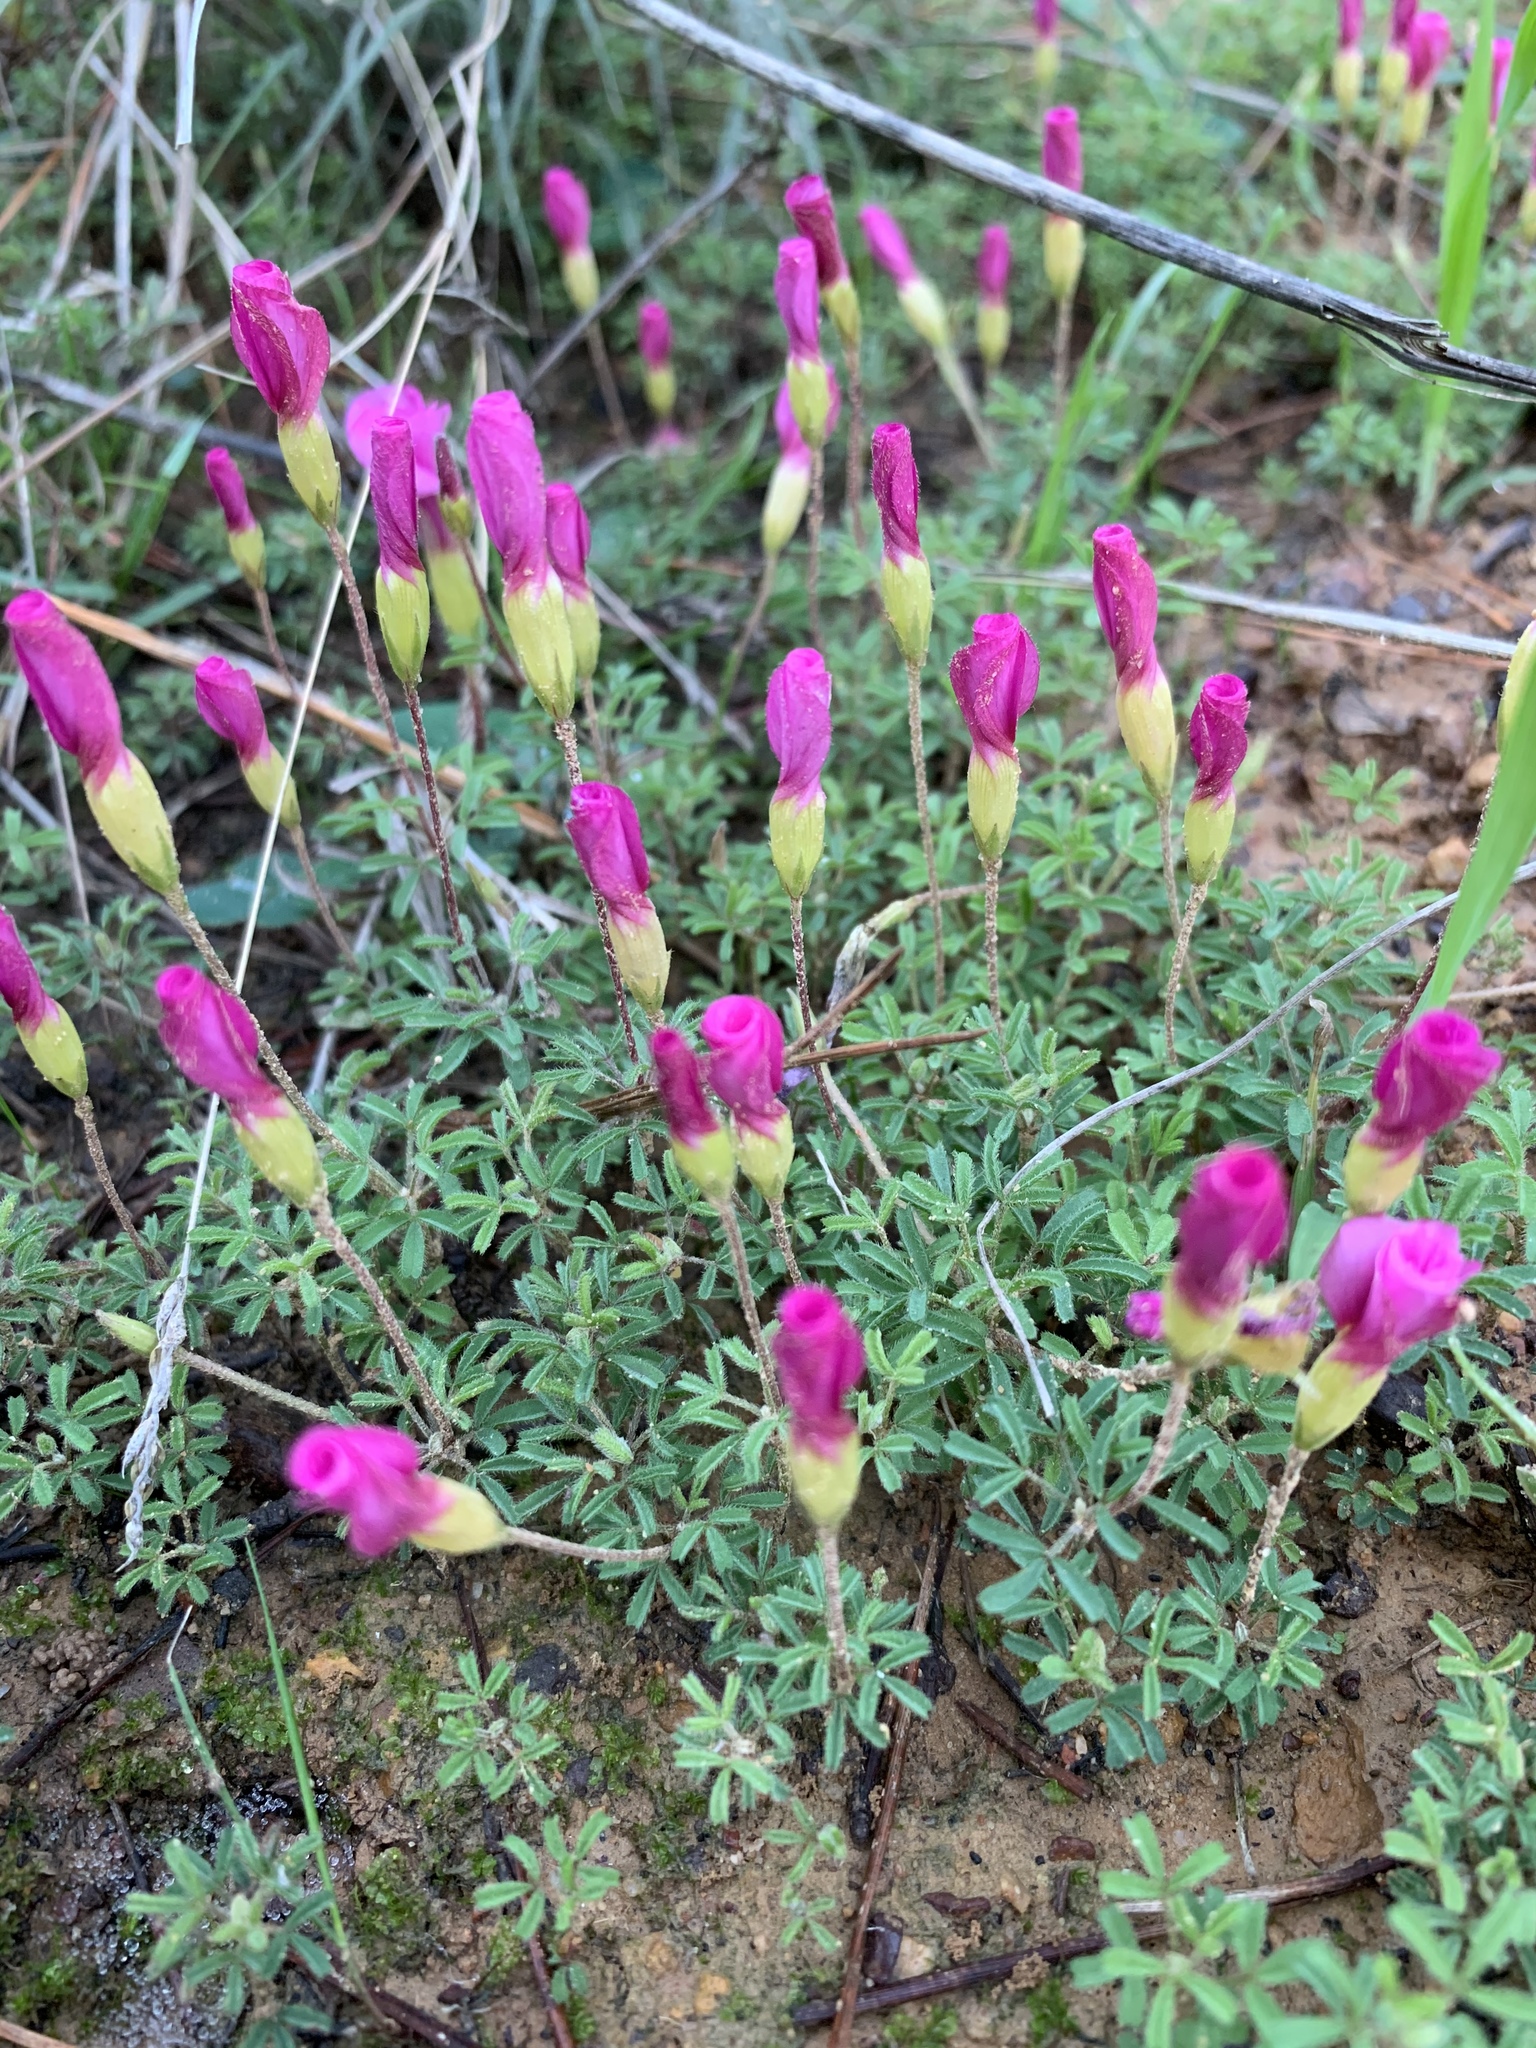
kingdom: Plantae
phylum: Tracheophyta
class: Magnoliopsida
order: Oxalidales
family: Oxalidaceae
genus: Oxalis
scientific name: Oxalis glabra
